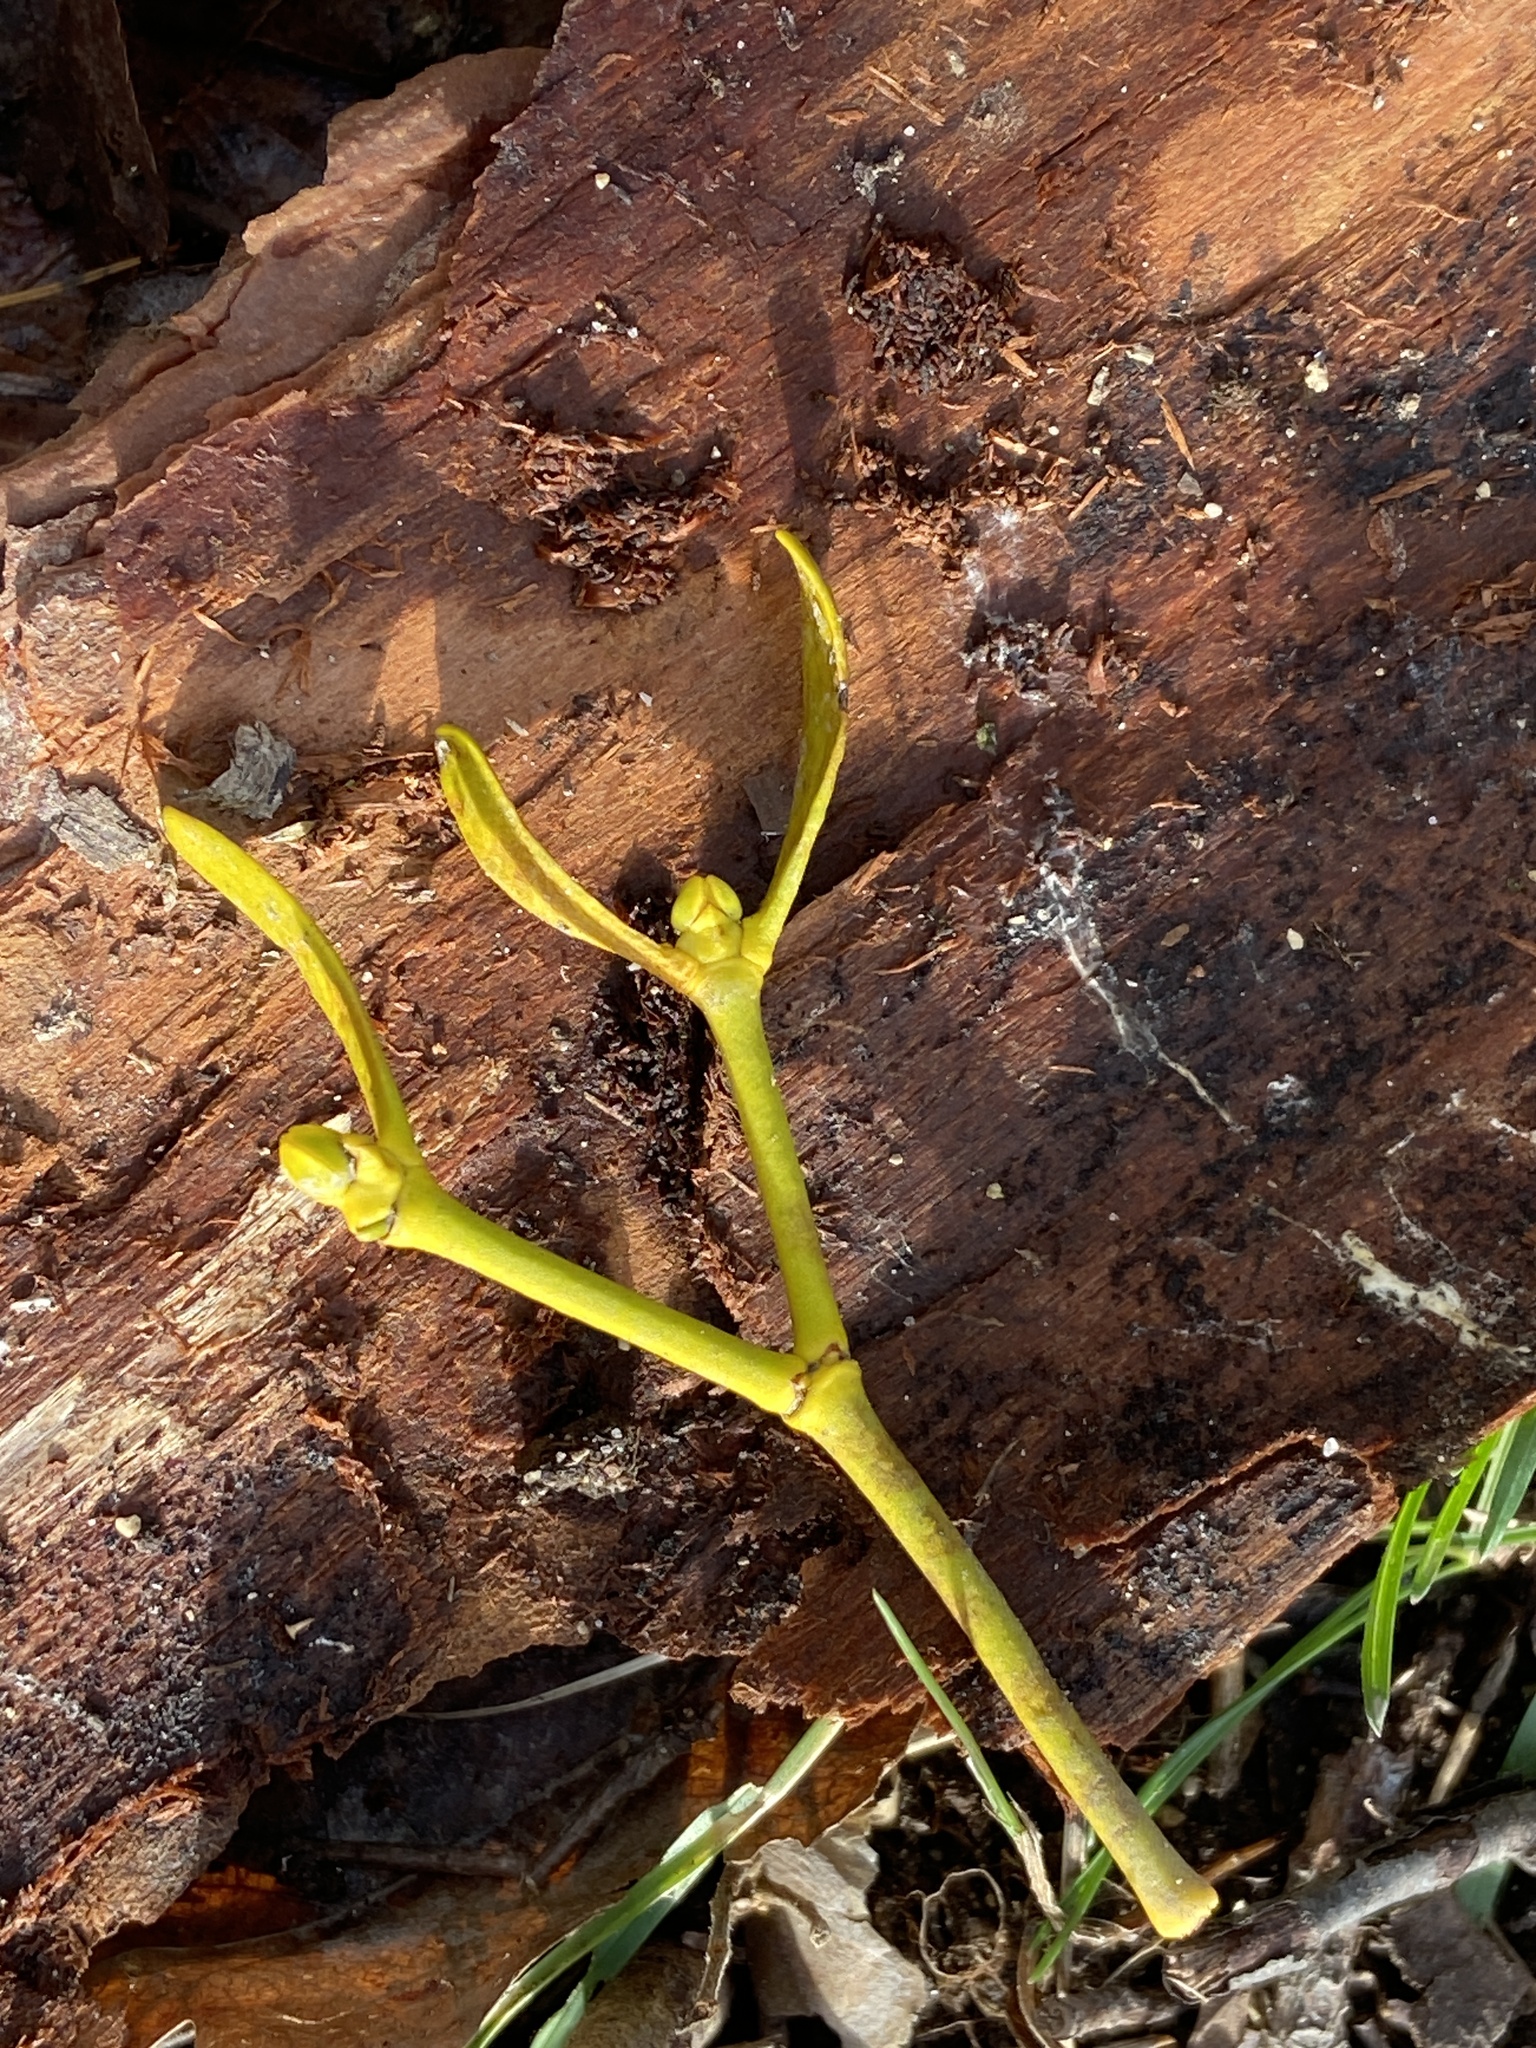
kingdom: Plantae
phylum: Tracheophyta
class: Magnoliopsida
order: Santalales
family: Viscaceae
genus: Viscum
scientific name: Viscum album
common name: Mistletoe
